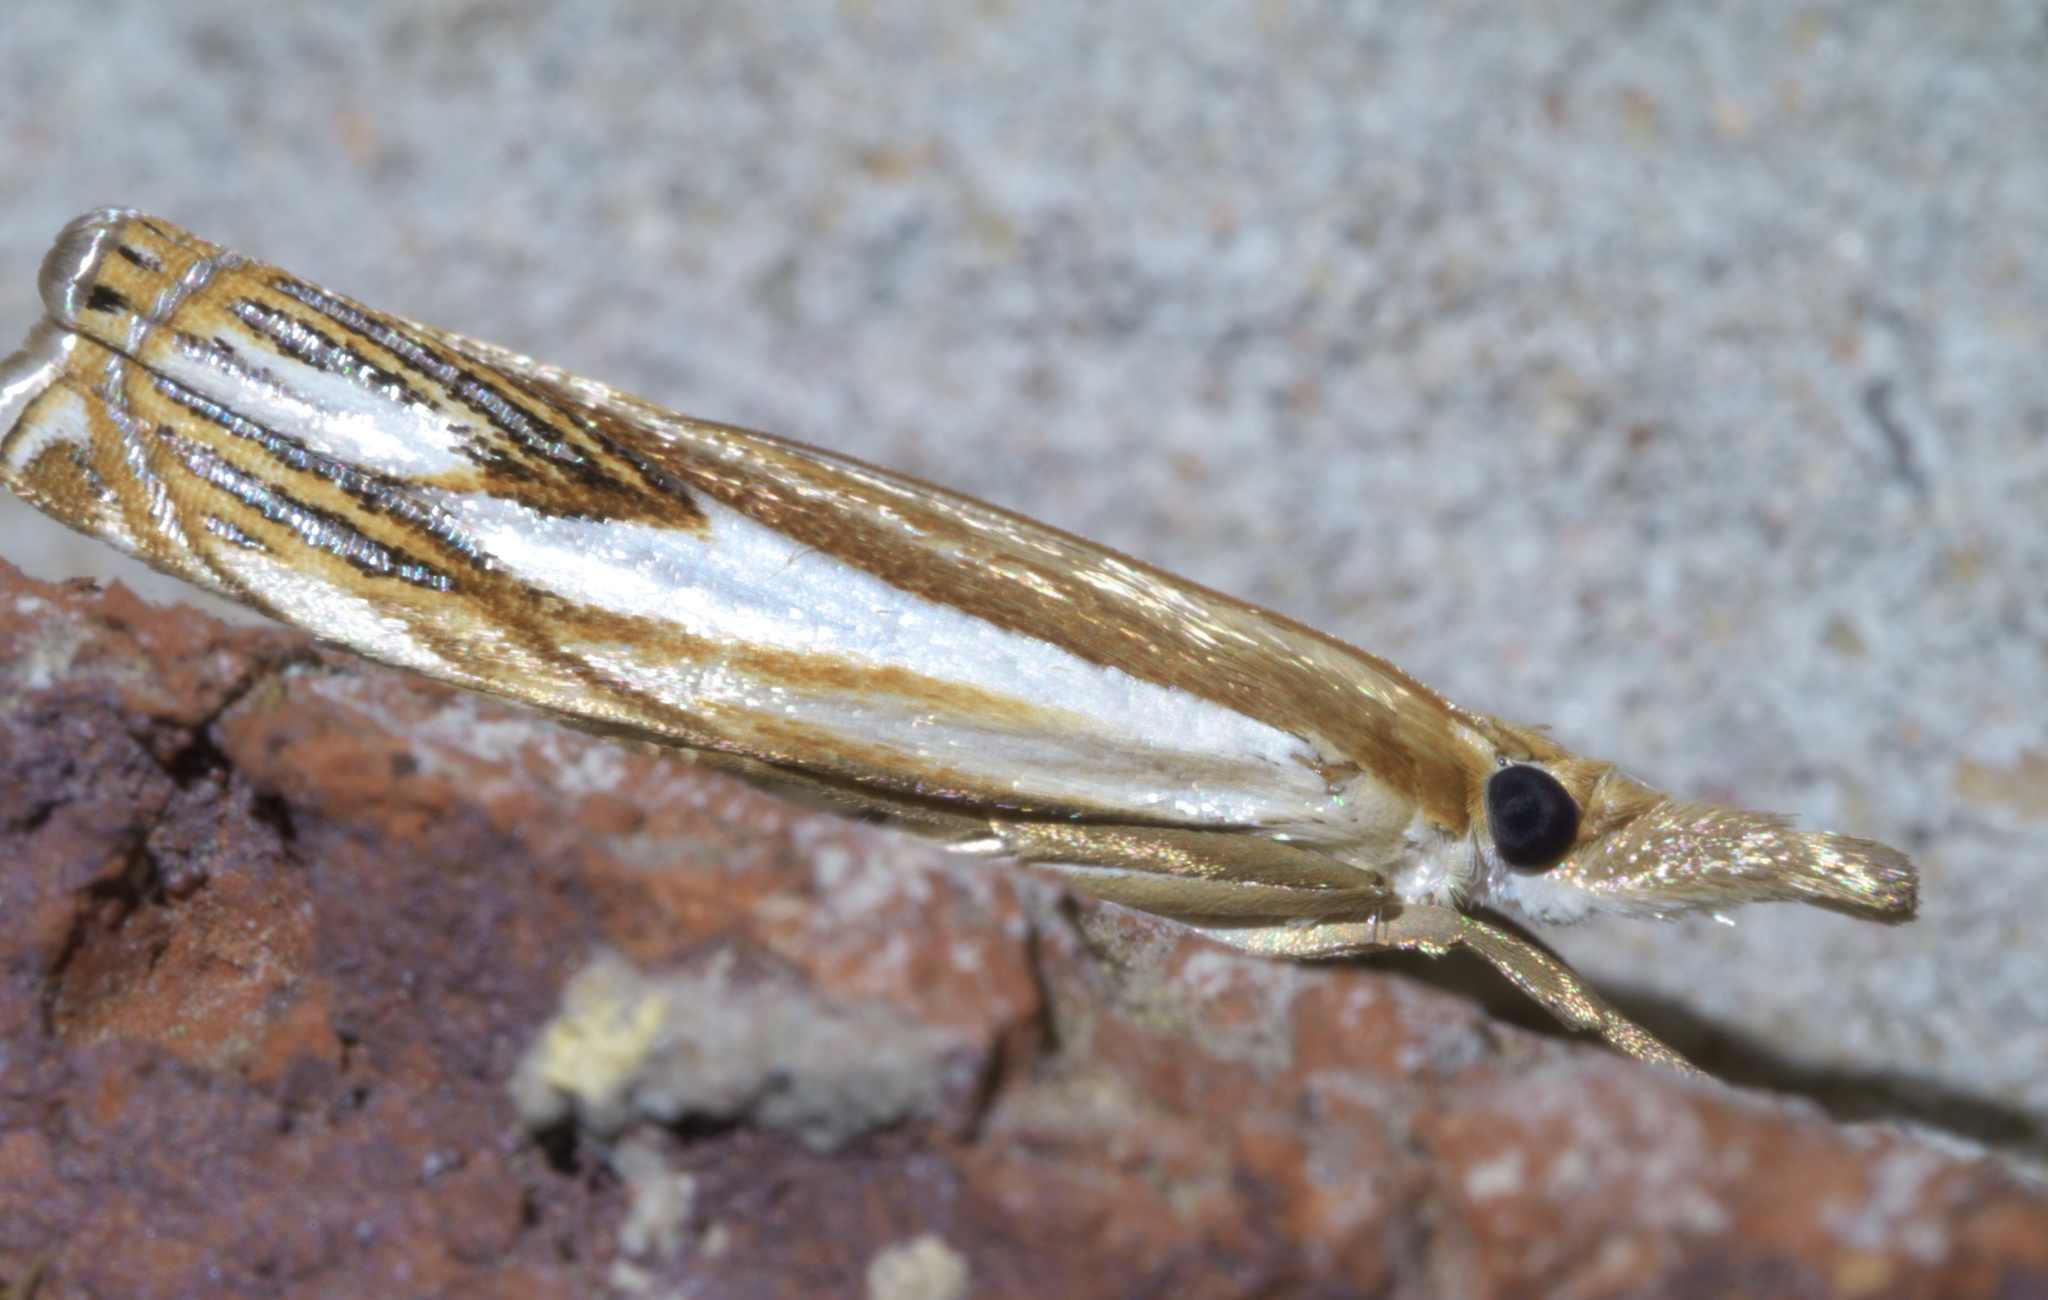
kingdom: Animalia
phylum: Arthropoda
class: Insecta
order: Lepidoptera
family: Crambidae
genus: Crambus
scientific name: Crambus agitatellus
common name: Double-banded grass-veneer
